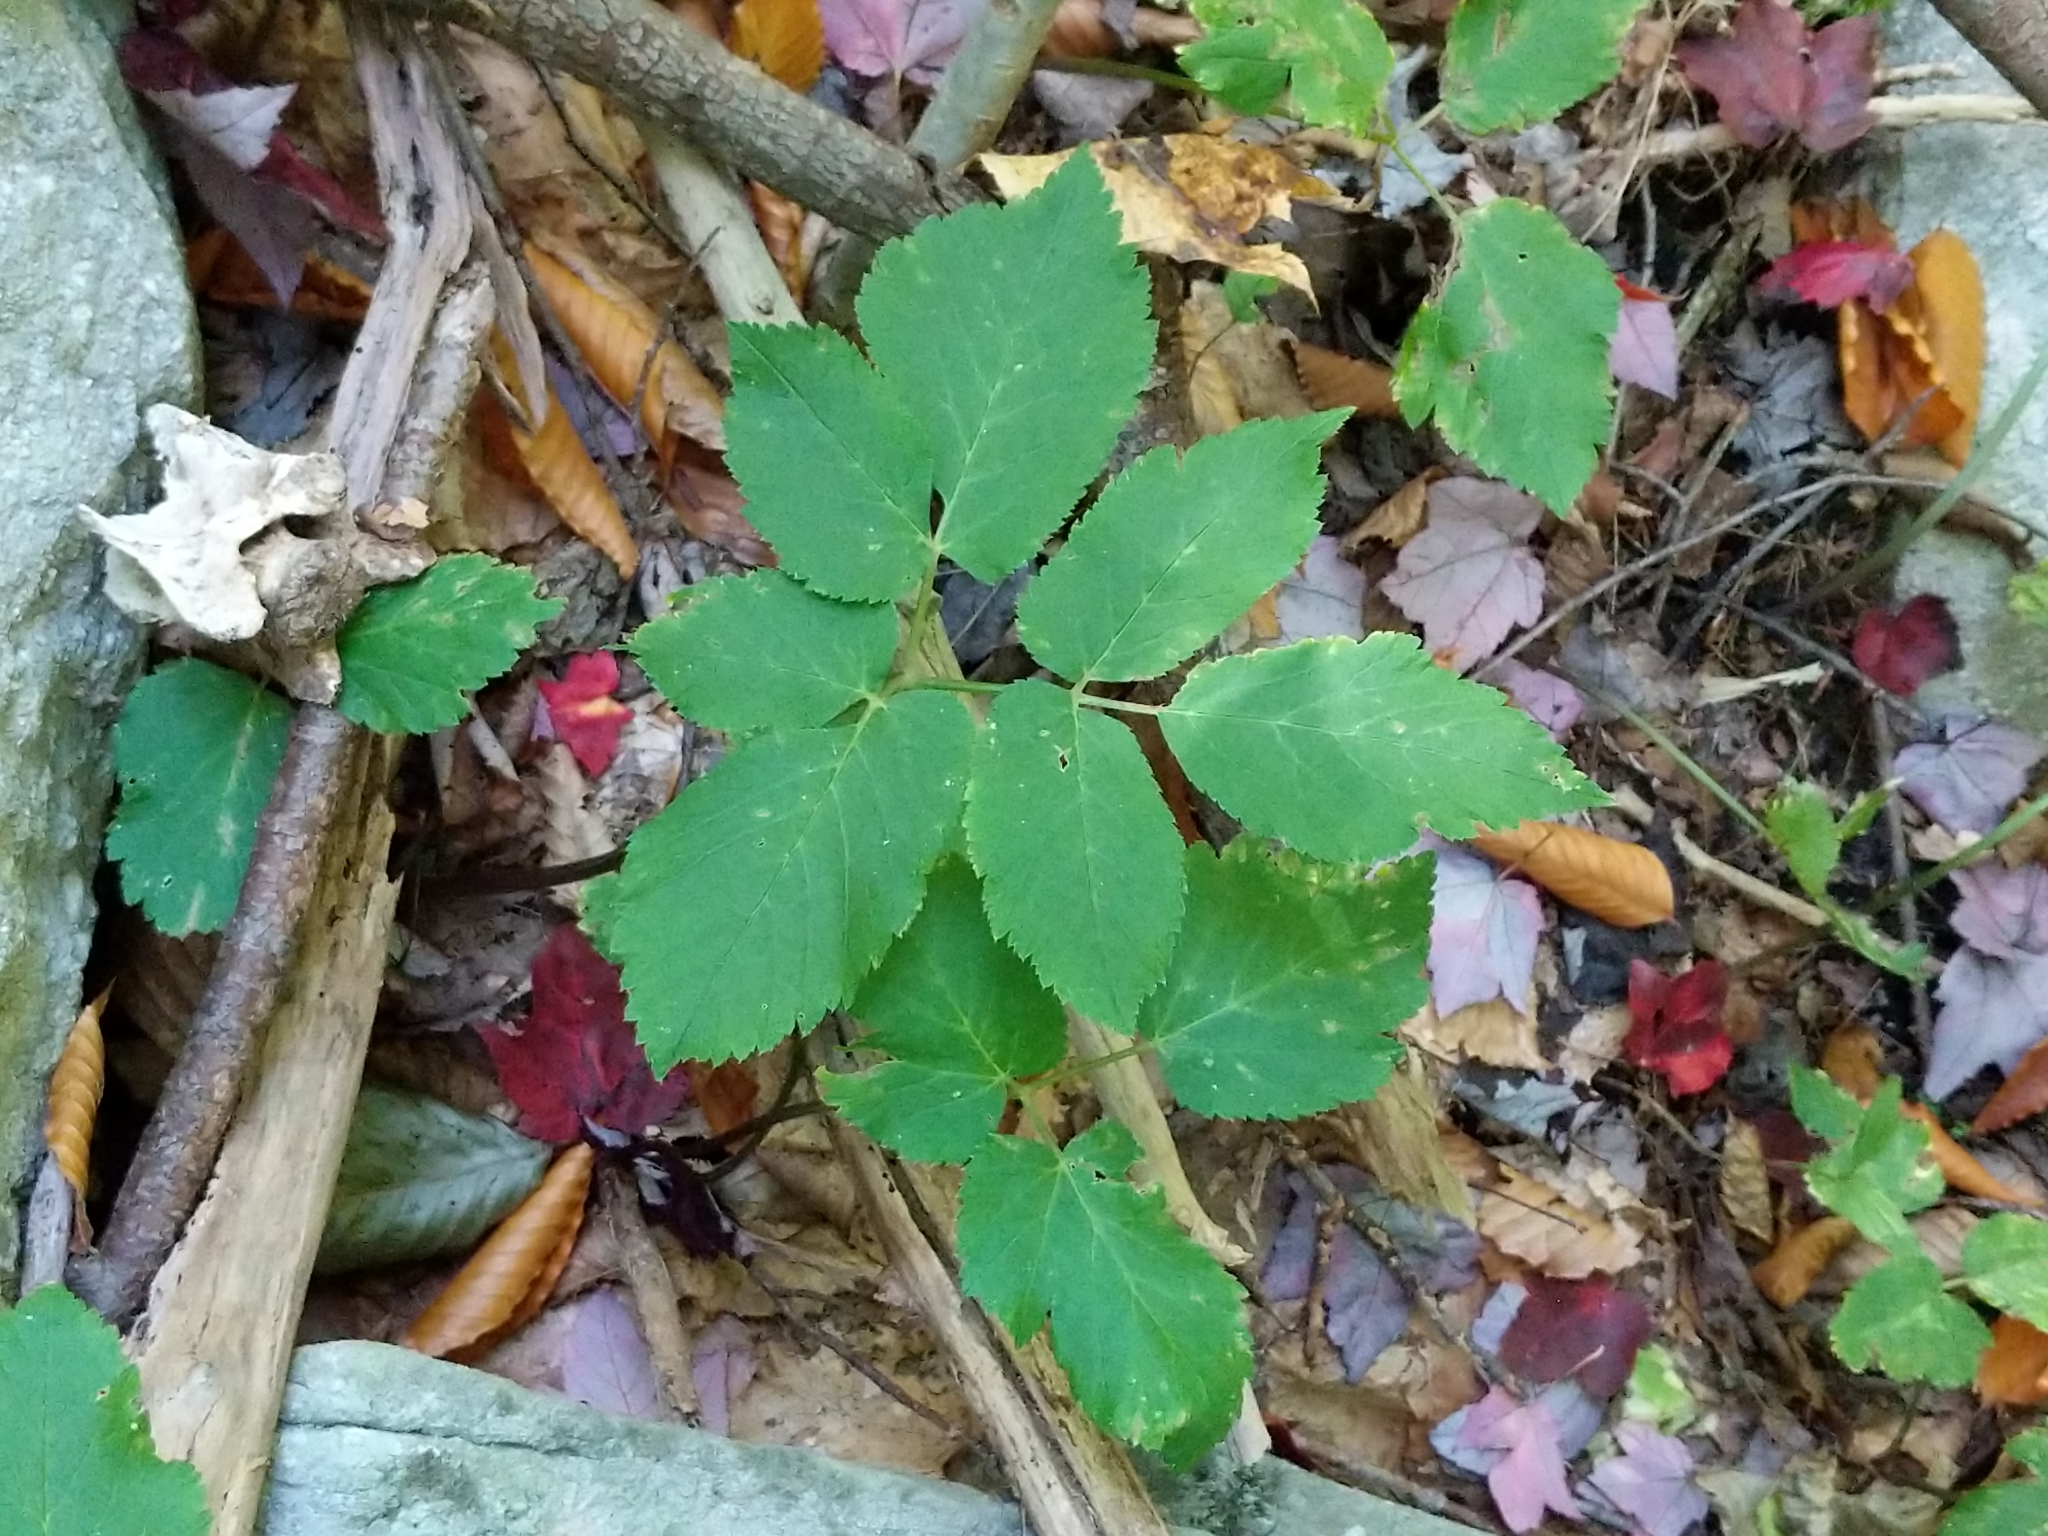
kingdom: Plantae
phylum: Tracheophyta
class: Magnoliopsida
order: Apiales
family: Apiaceae
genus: Aegopodium
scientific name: Aegopodium podagraria
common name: Ground-elder
